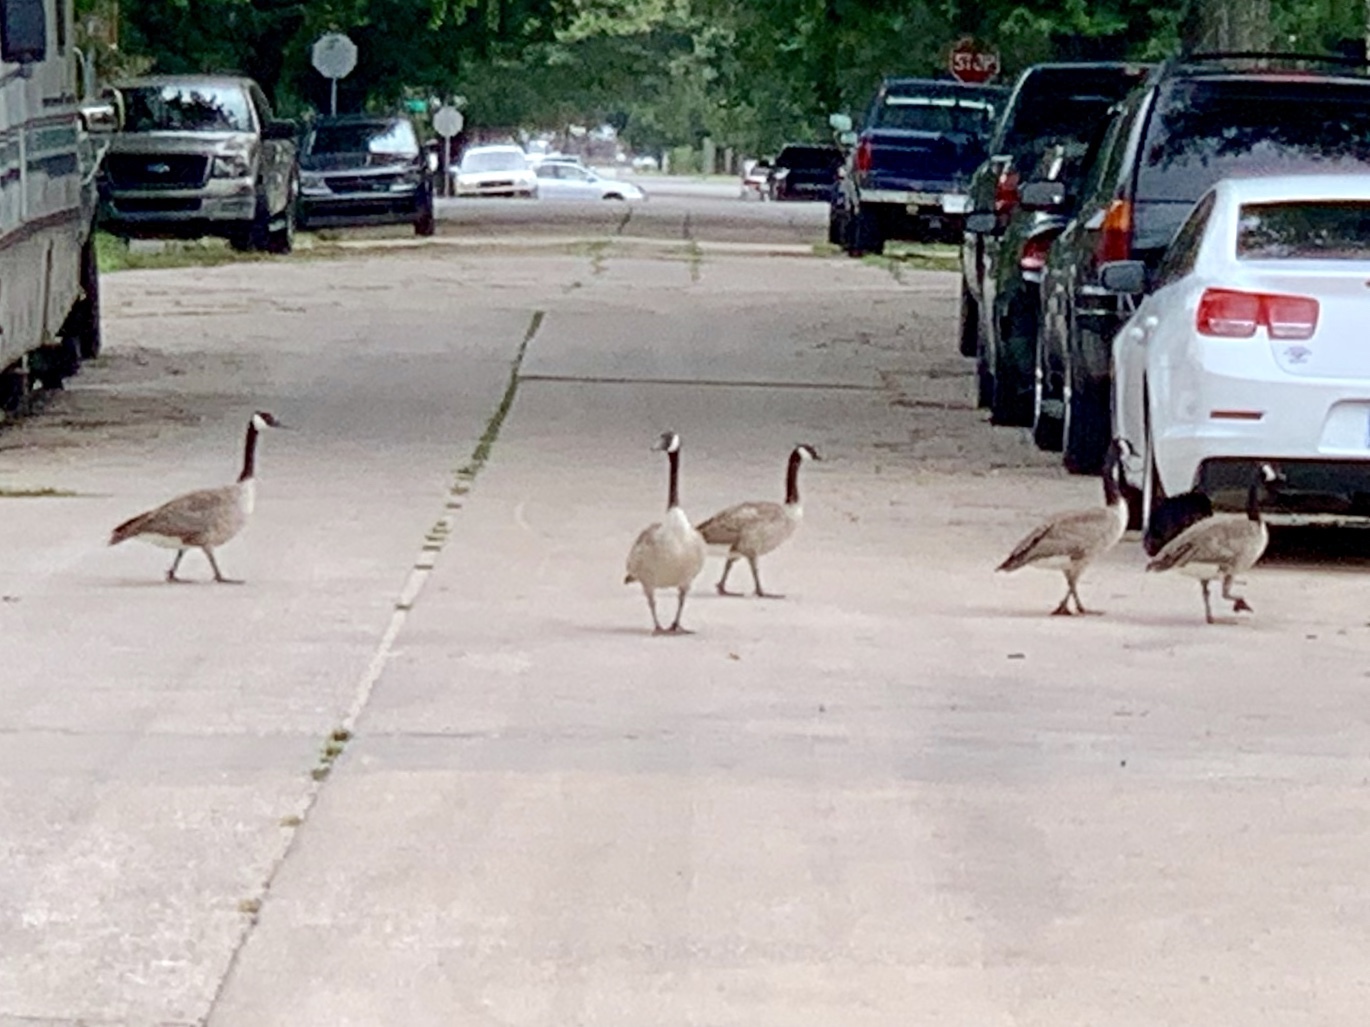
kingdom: Animalia
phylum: Chordata
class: Aves
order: Anseriformes
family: Anatidae
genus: Branta
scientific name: Branta canadensis
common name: Canada goose
